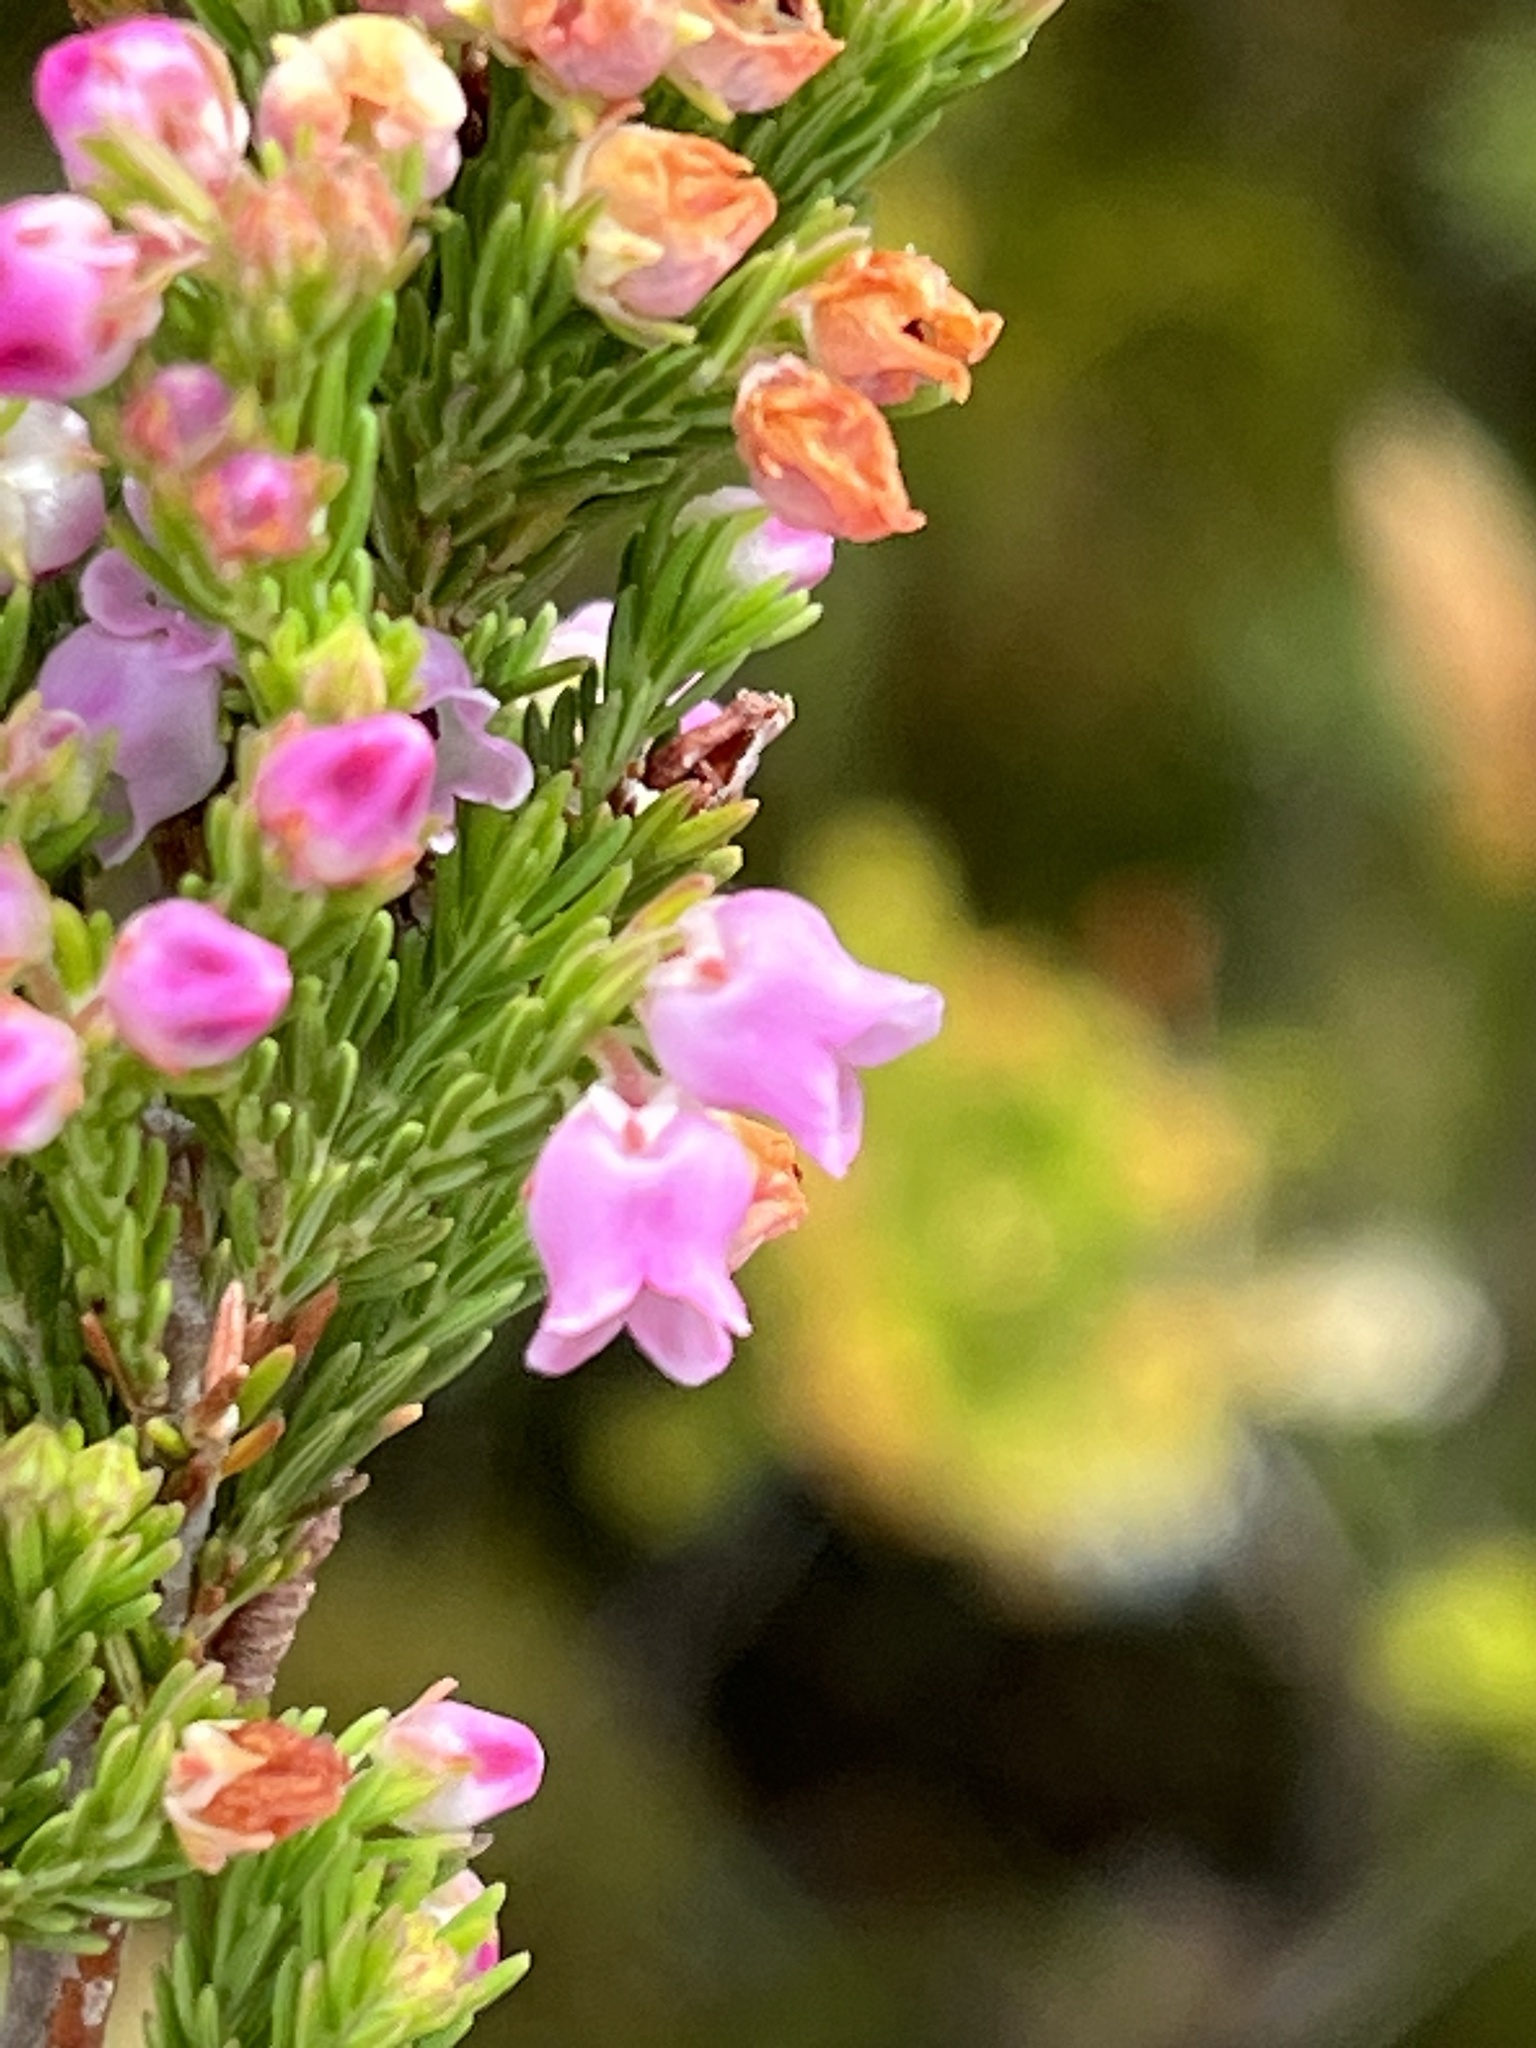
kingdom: Plantae
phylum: Tracheophyta
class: Magnoliopsida
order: Ericales
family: Ericaceae
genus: Erica
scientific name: Erica condensata
